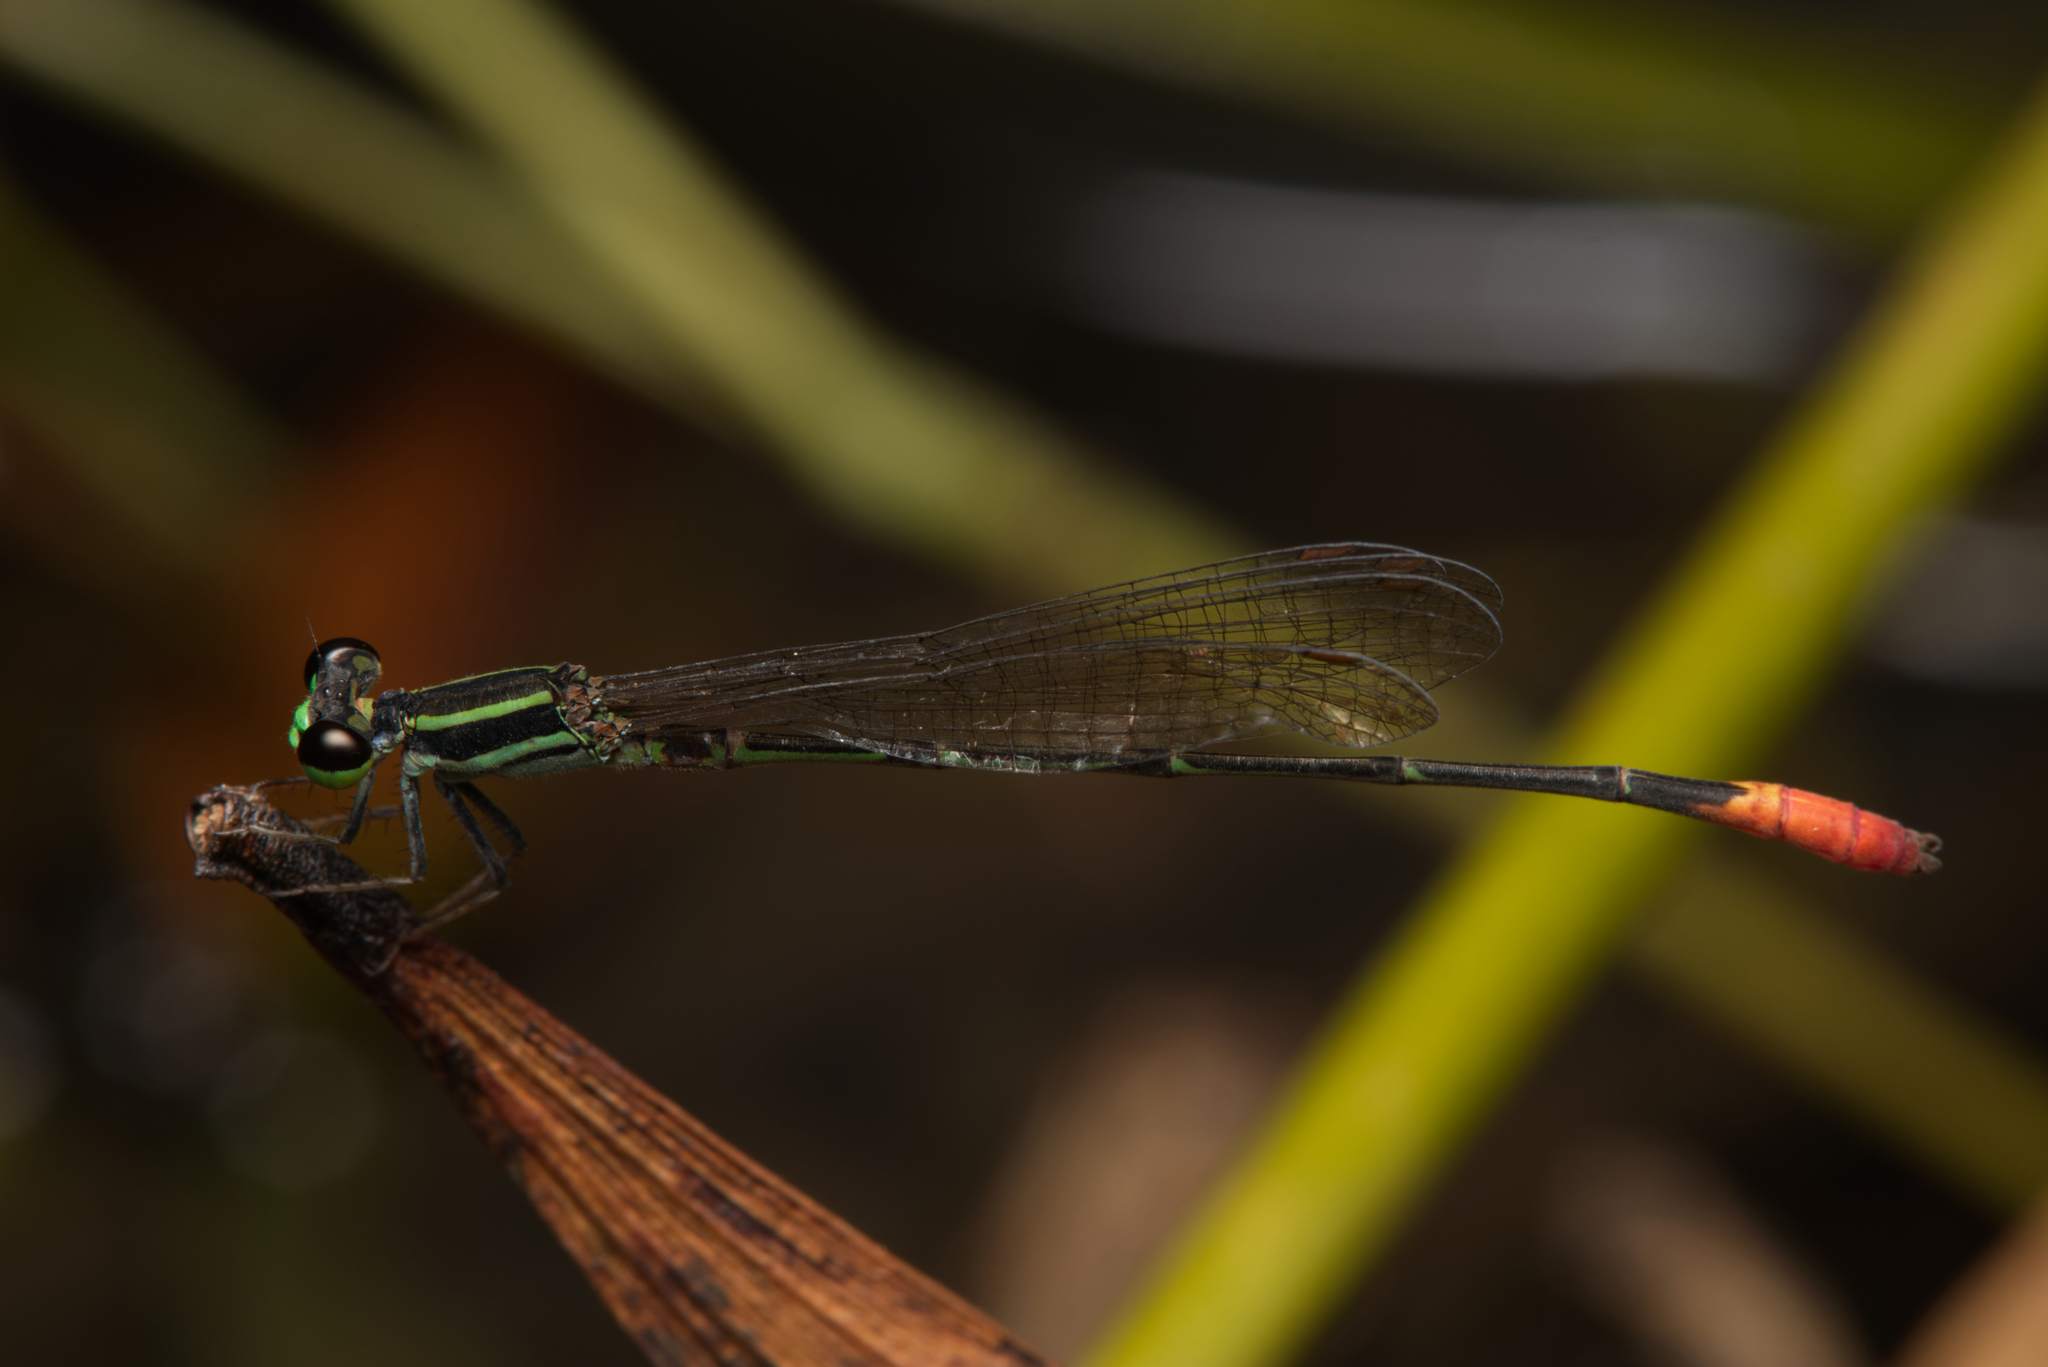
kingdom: Animalia
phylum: Arthropoda
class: Insecta
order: Odonata
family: Coenagrionidae
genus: Argiocnemis
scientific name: Argiocnemis rubescens
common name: Red-tipped shadefly
